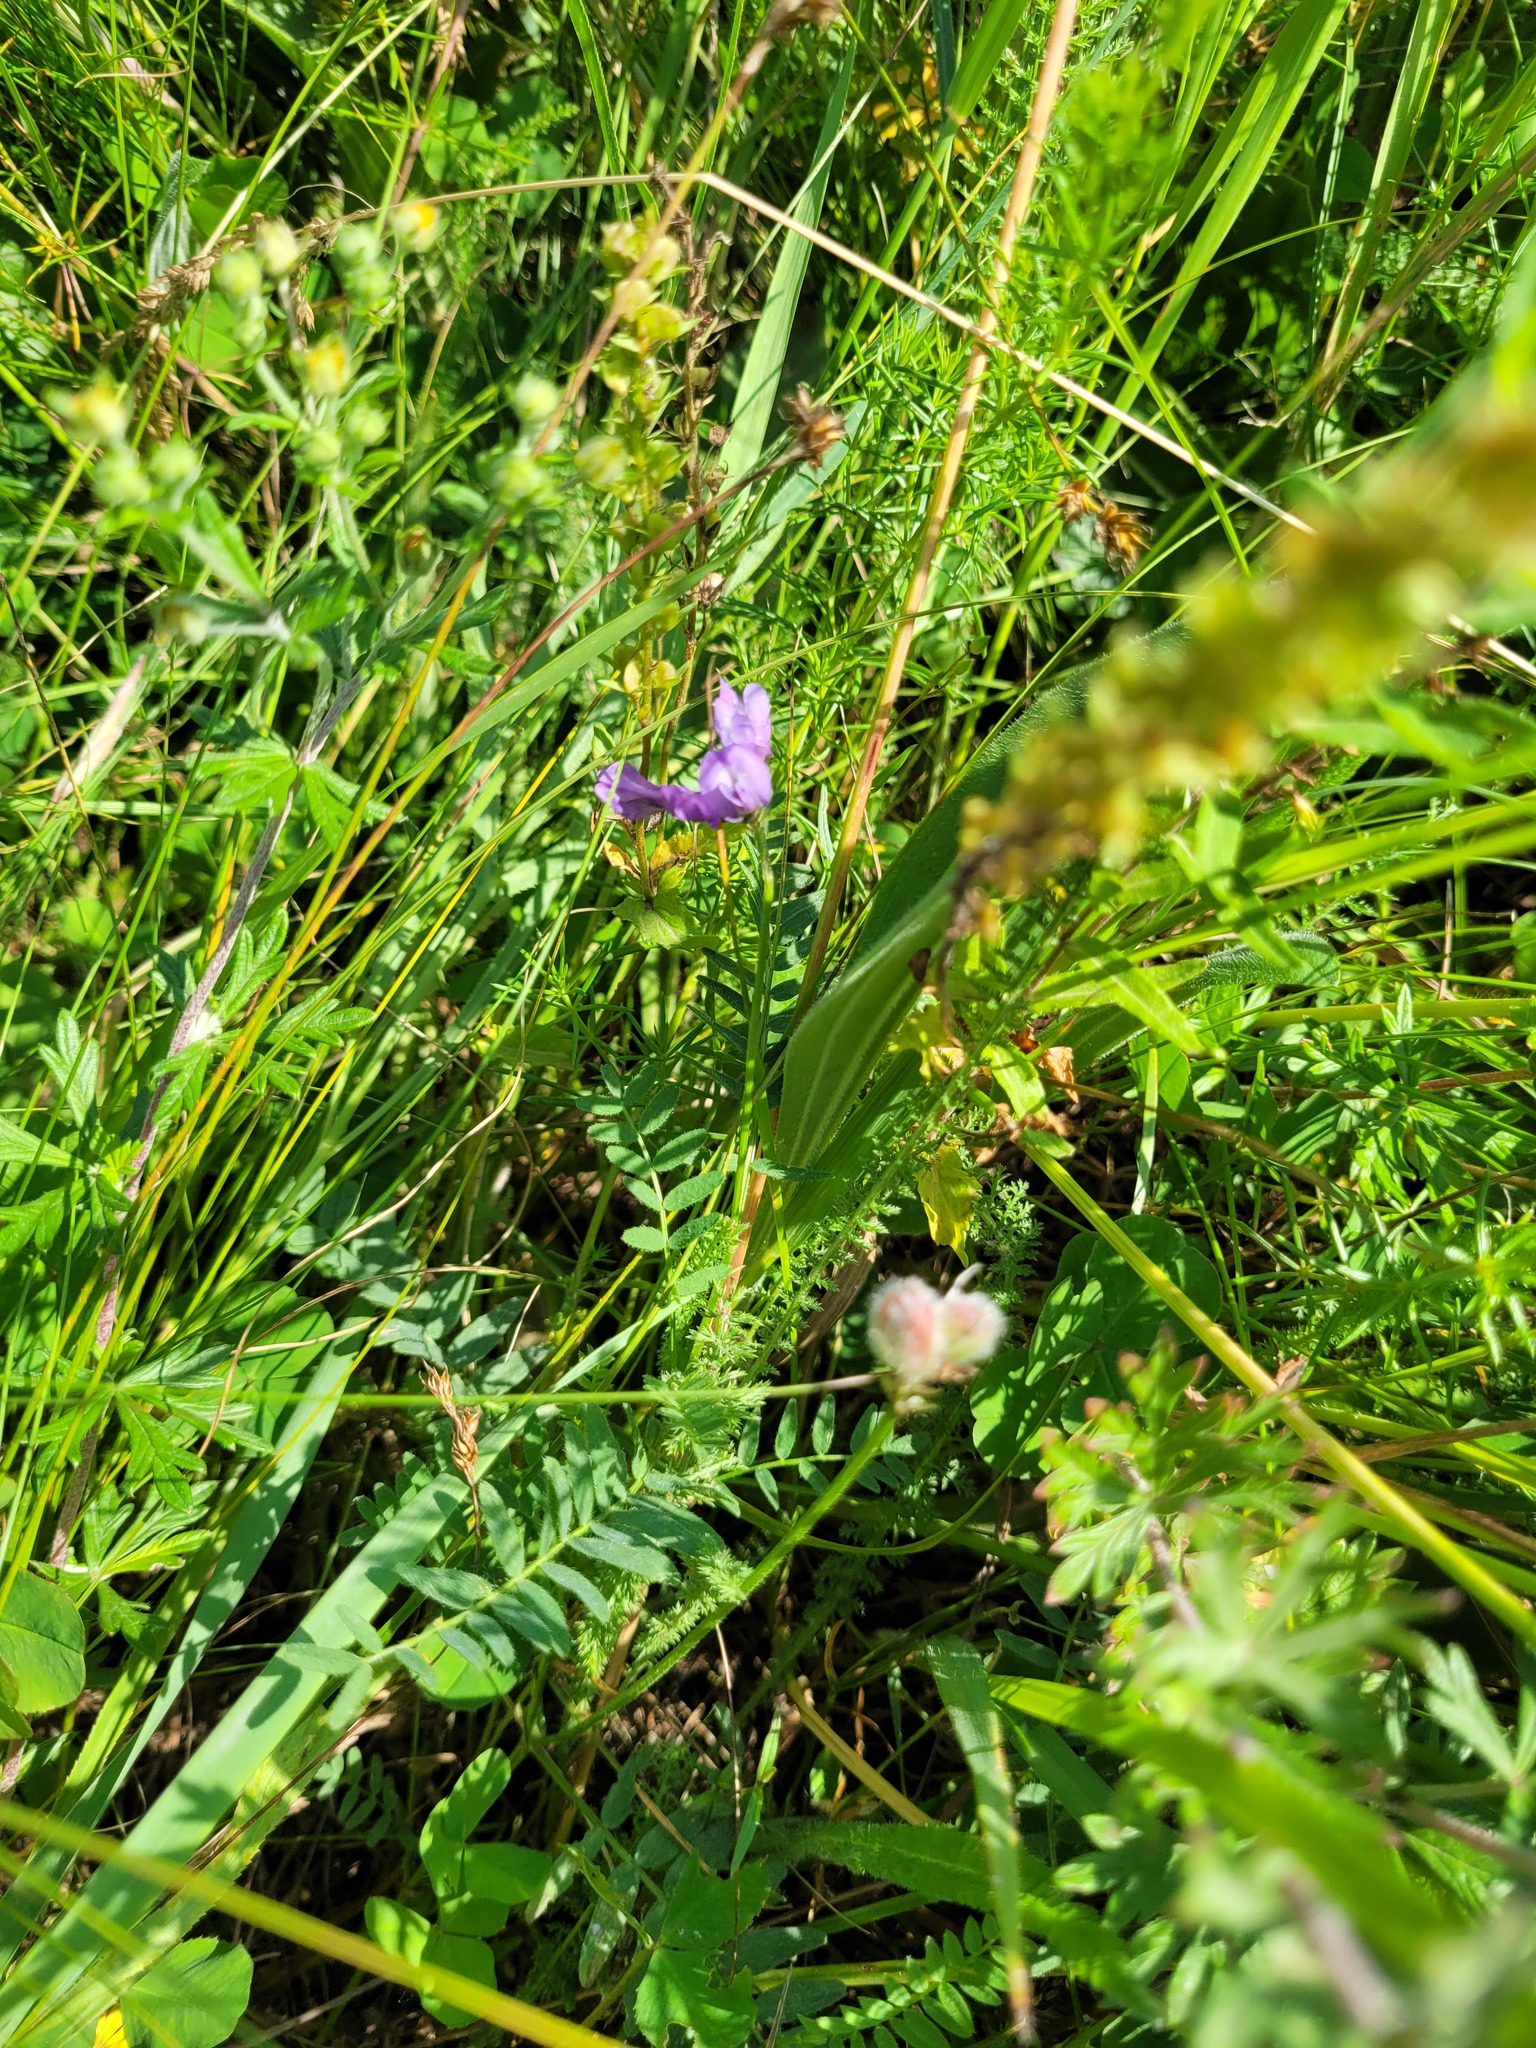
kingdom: Plantae
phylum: Tracheophyta
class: Magnoliopsida
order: Fabales
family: Fabaceae
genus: Astragalus
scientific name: Astragalus danicus
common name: Purple milk-vetch
